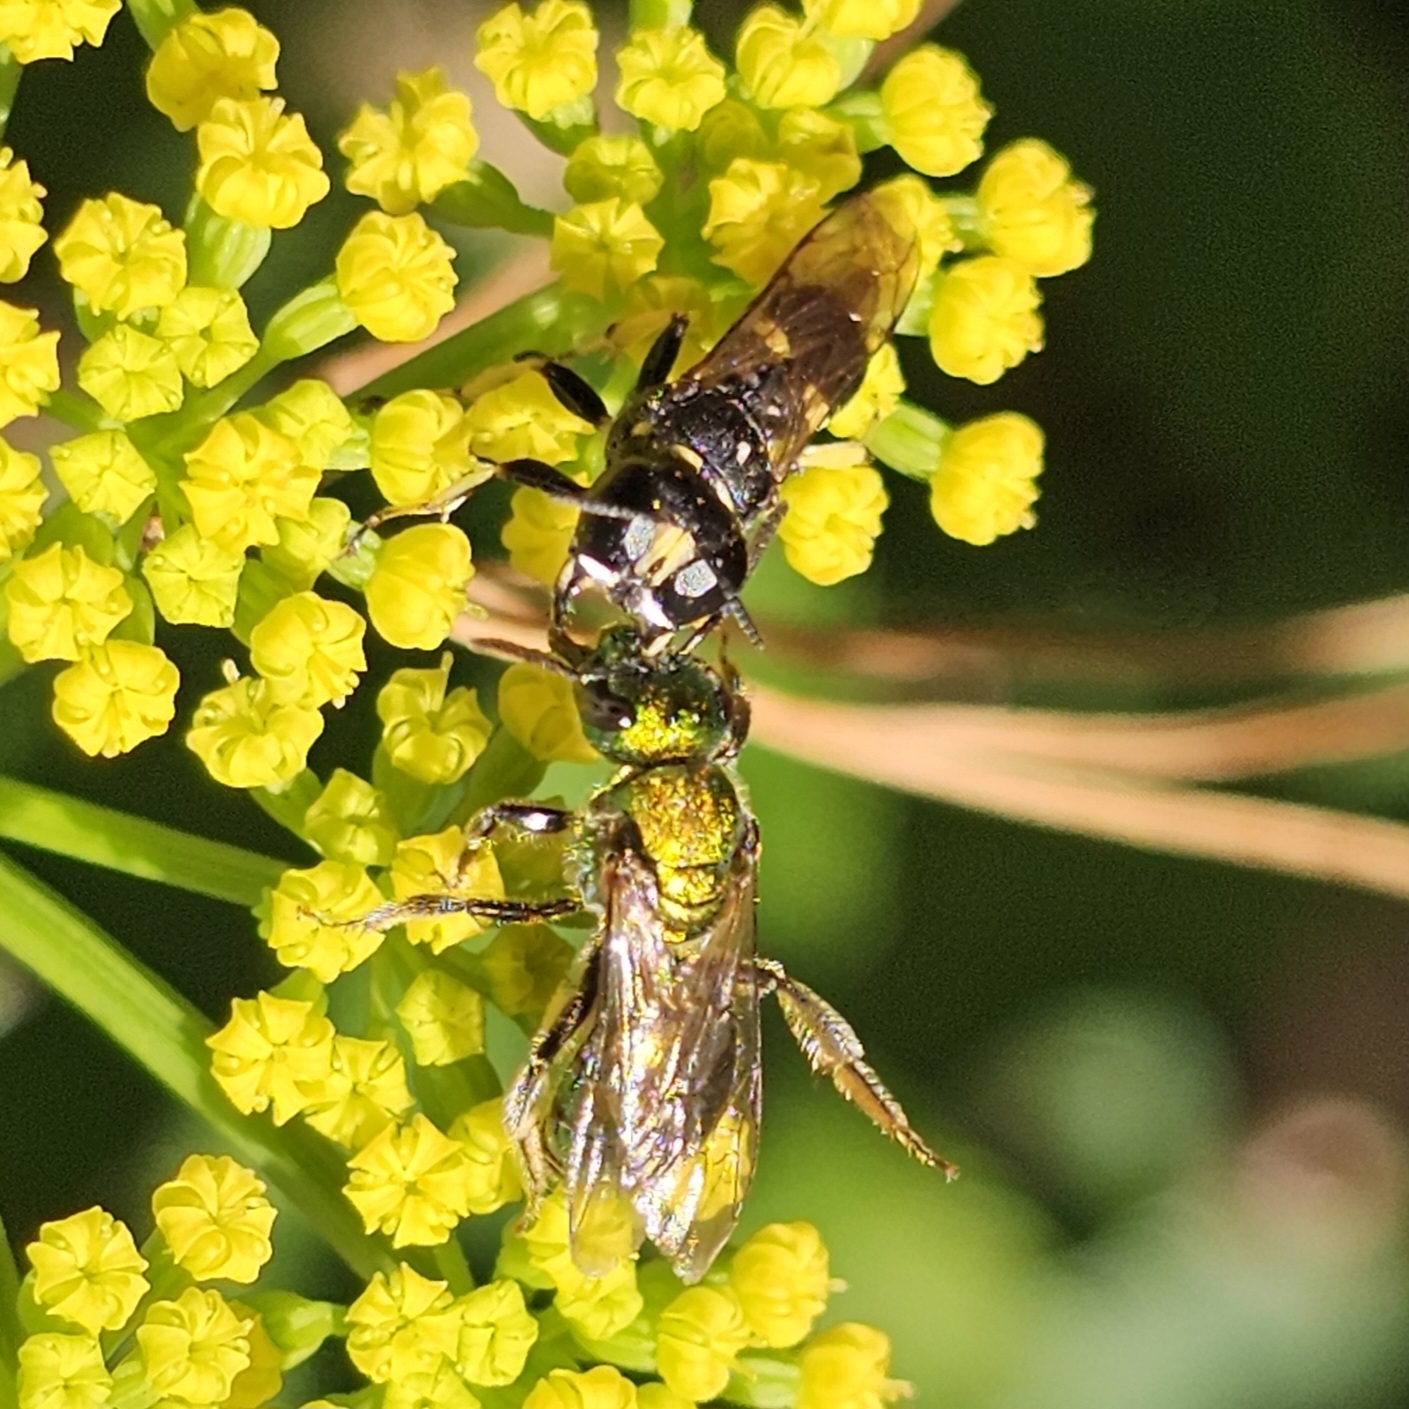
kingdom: Animalia
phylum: Arthropoda
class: Insecta
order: Hymenoptera
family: Crabronidae
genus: Ectemnius
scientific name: Ectemnius continuus
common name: Common ectemnius
